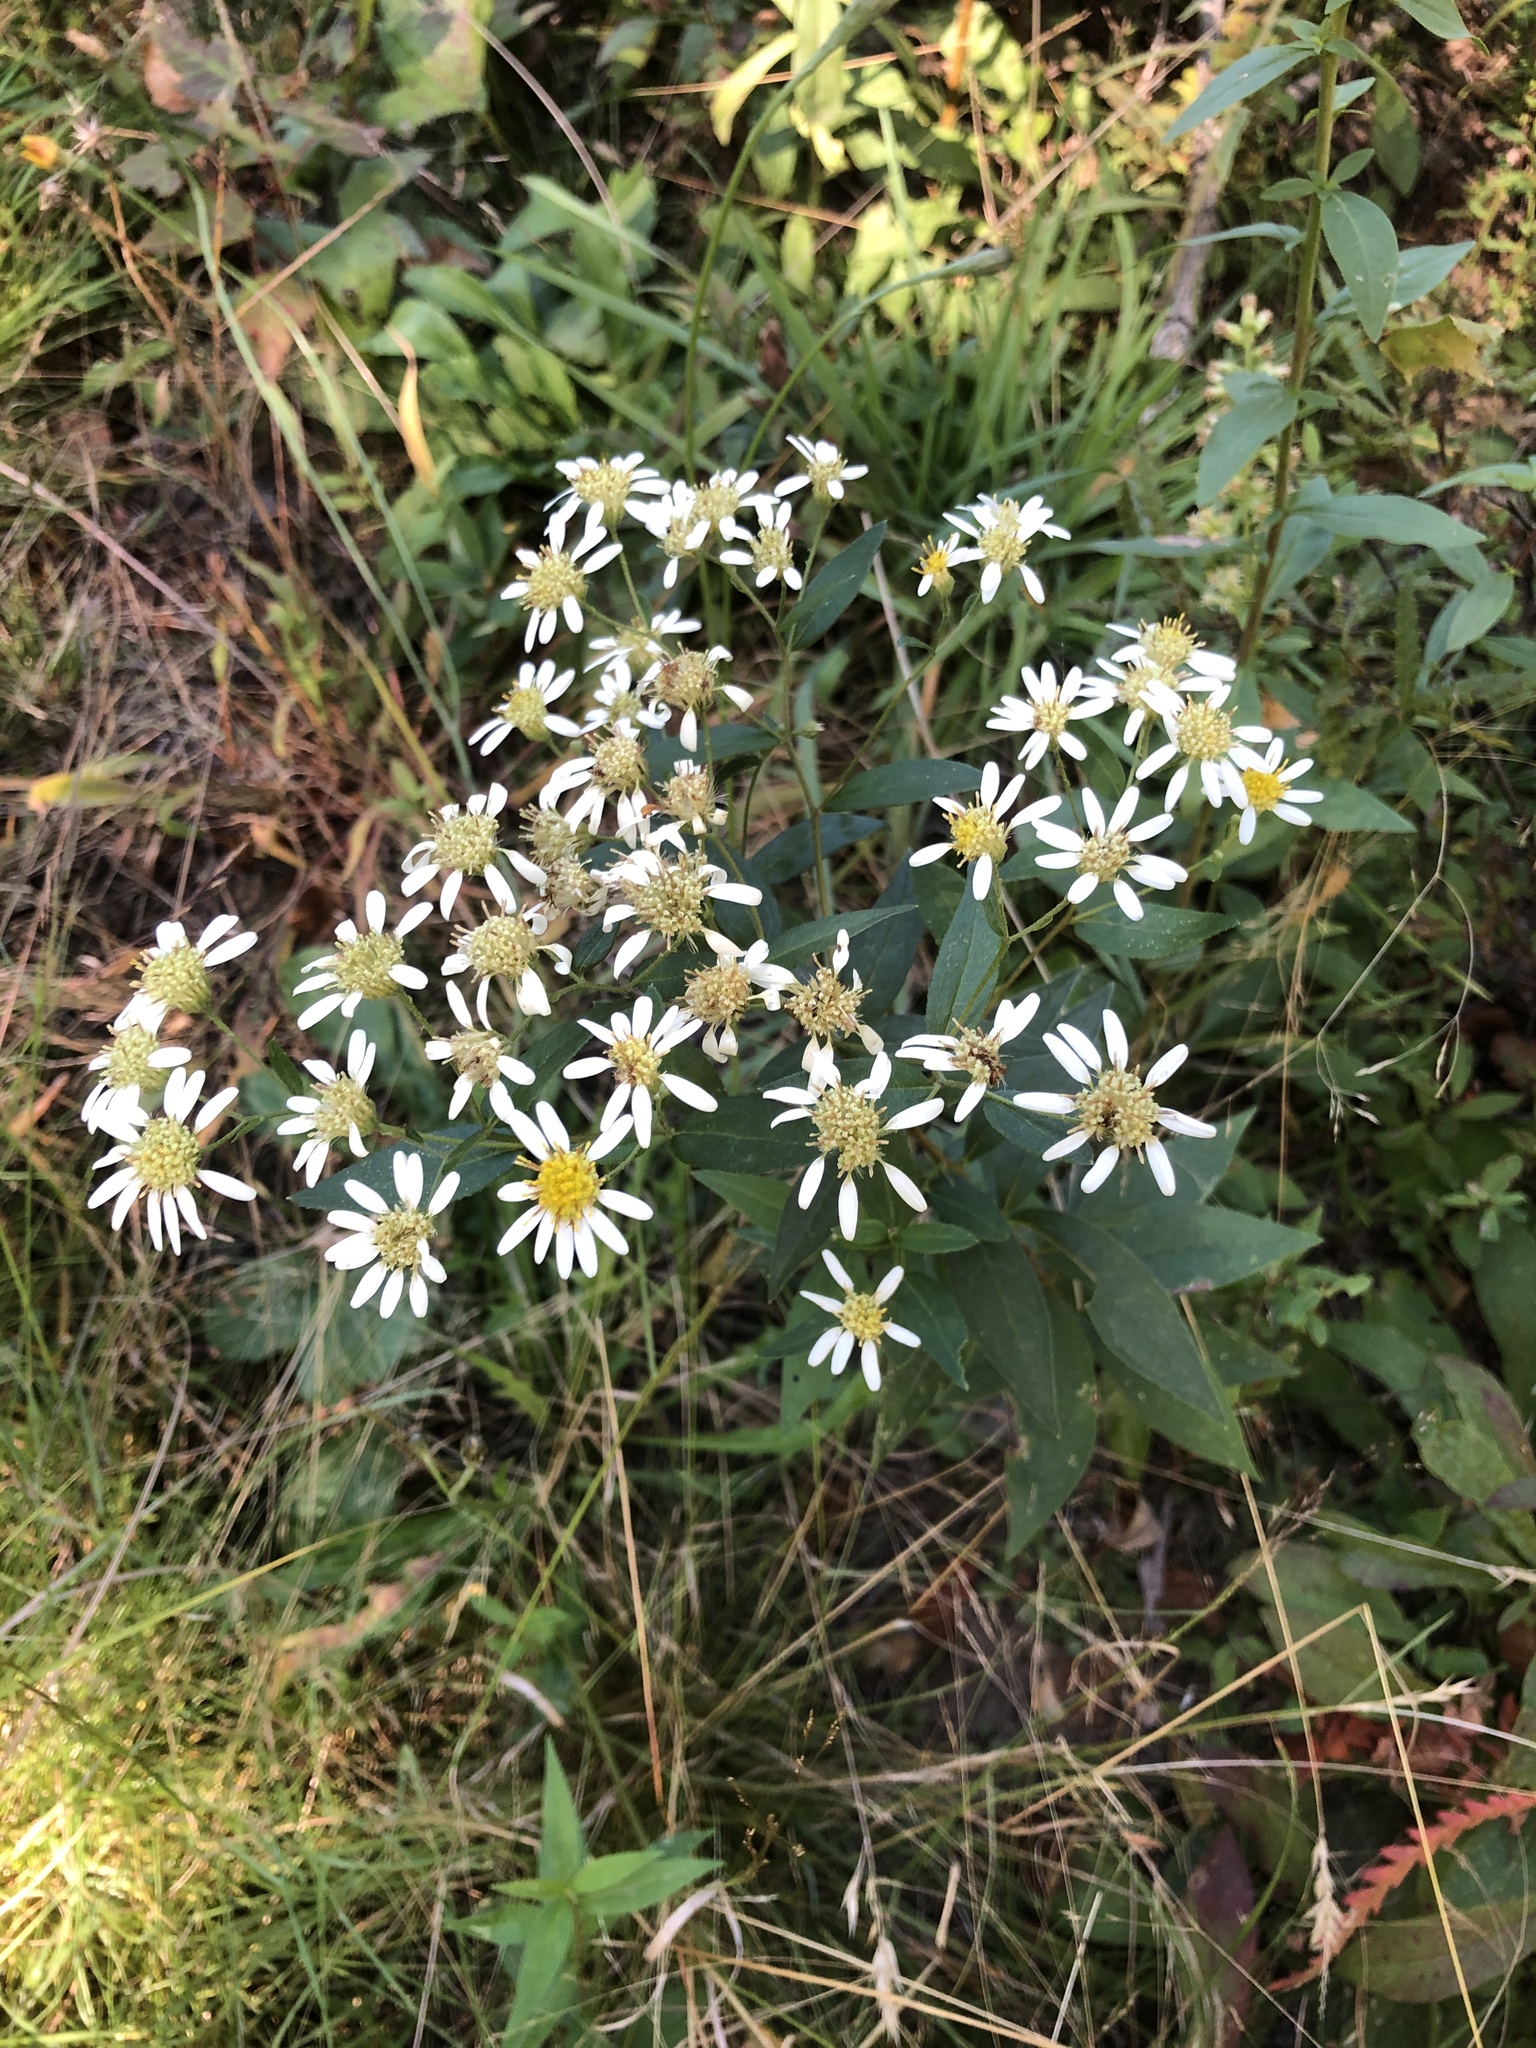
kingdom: Plantae
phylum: Tracheophyta
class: Magnoliopsida
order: Asterales
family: Asteraceae
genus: Doellingeria
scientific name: Doellingeria umbellata
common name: Flat-top white aster
